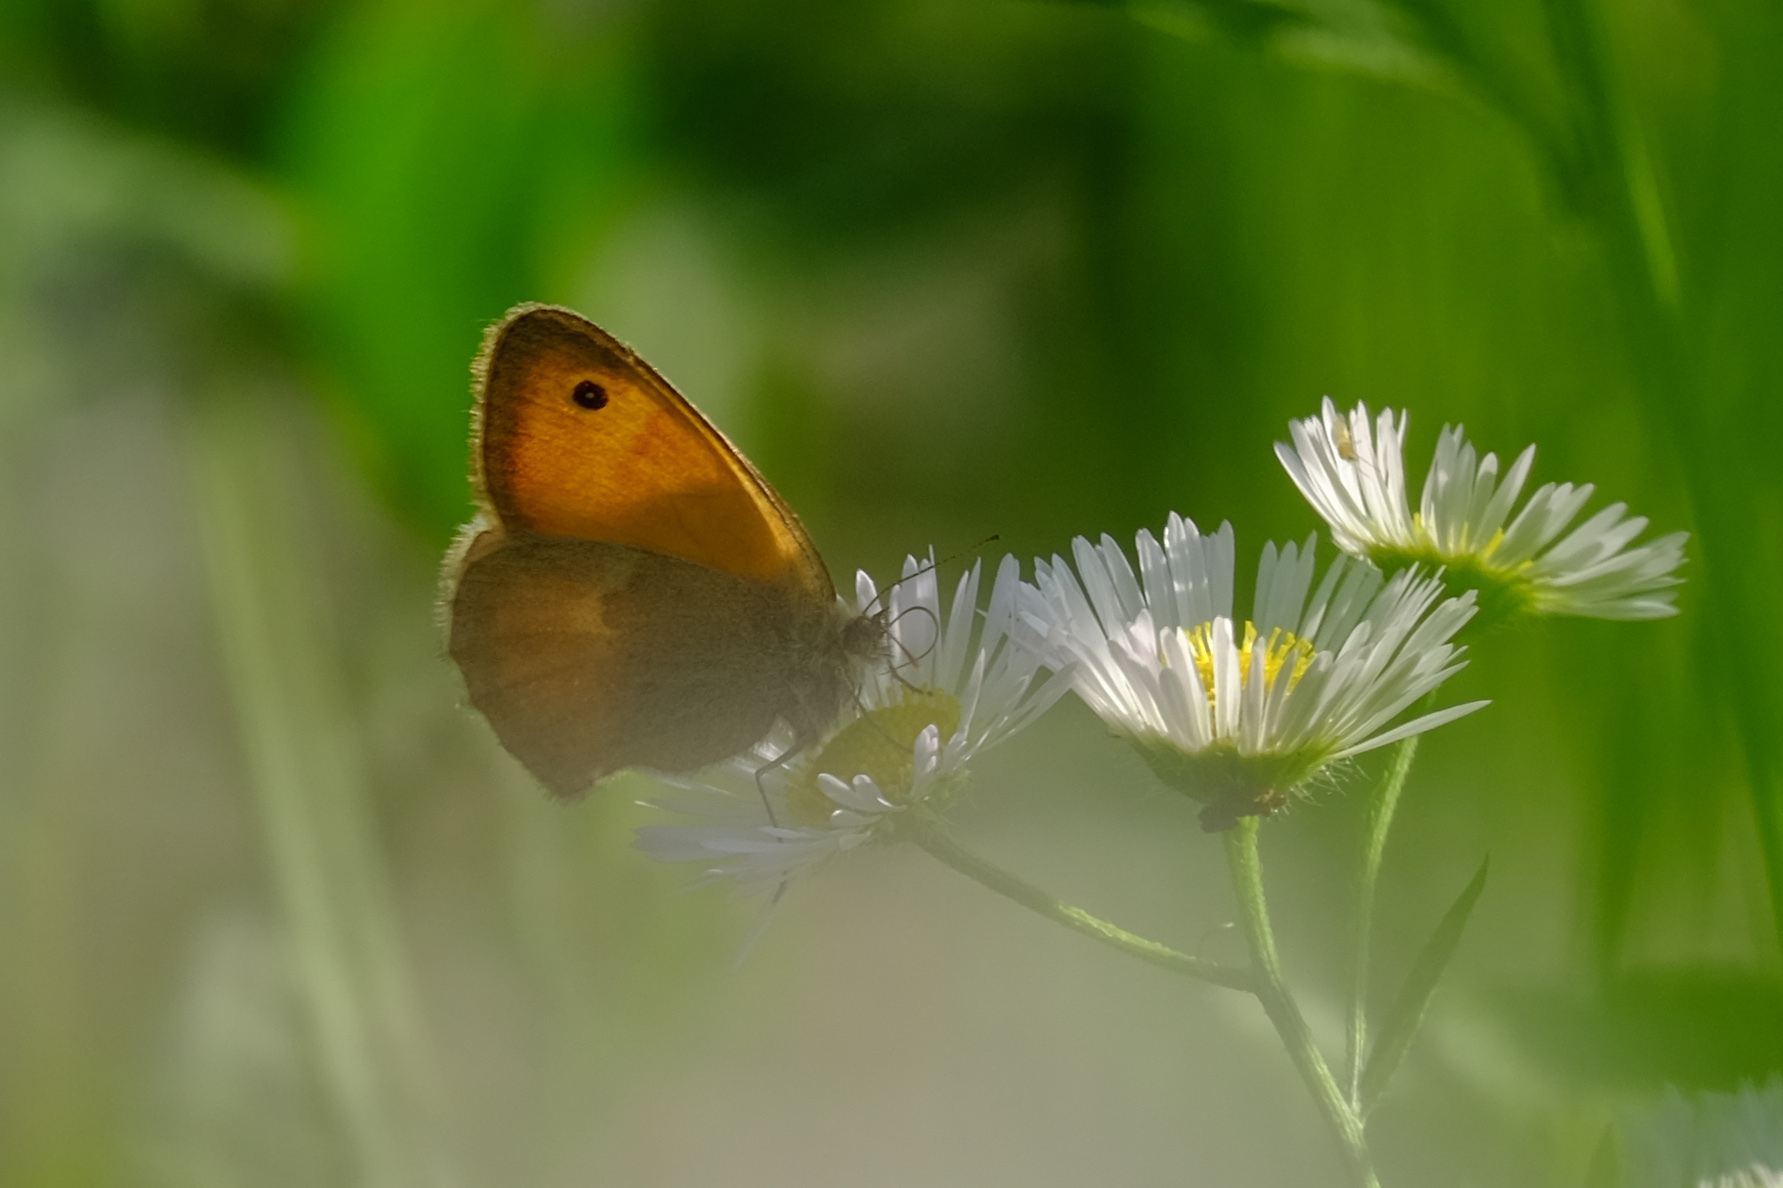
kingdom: Animalia
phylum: Arthropoda
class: Insecta
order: Lepidoptera
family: Nymphalidae
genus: Coenonympha
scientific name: Coenonympha pamphilus
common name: Small heath
